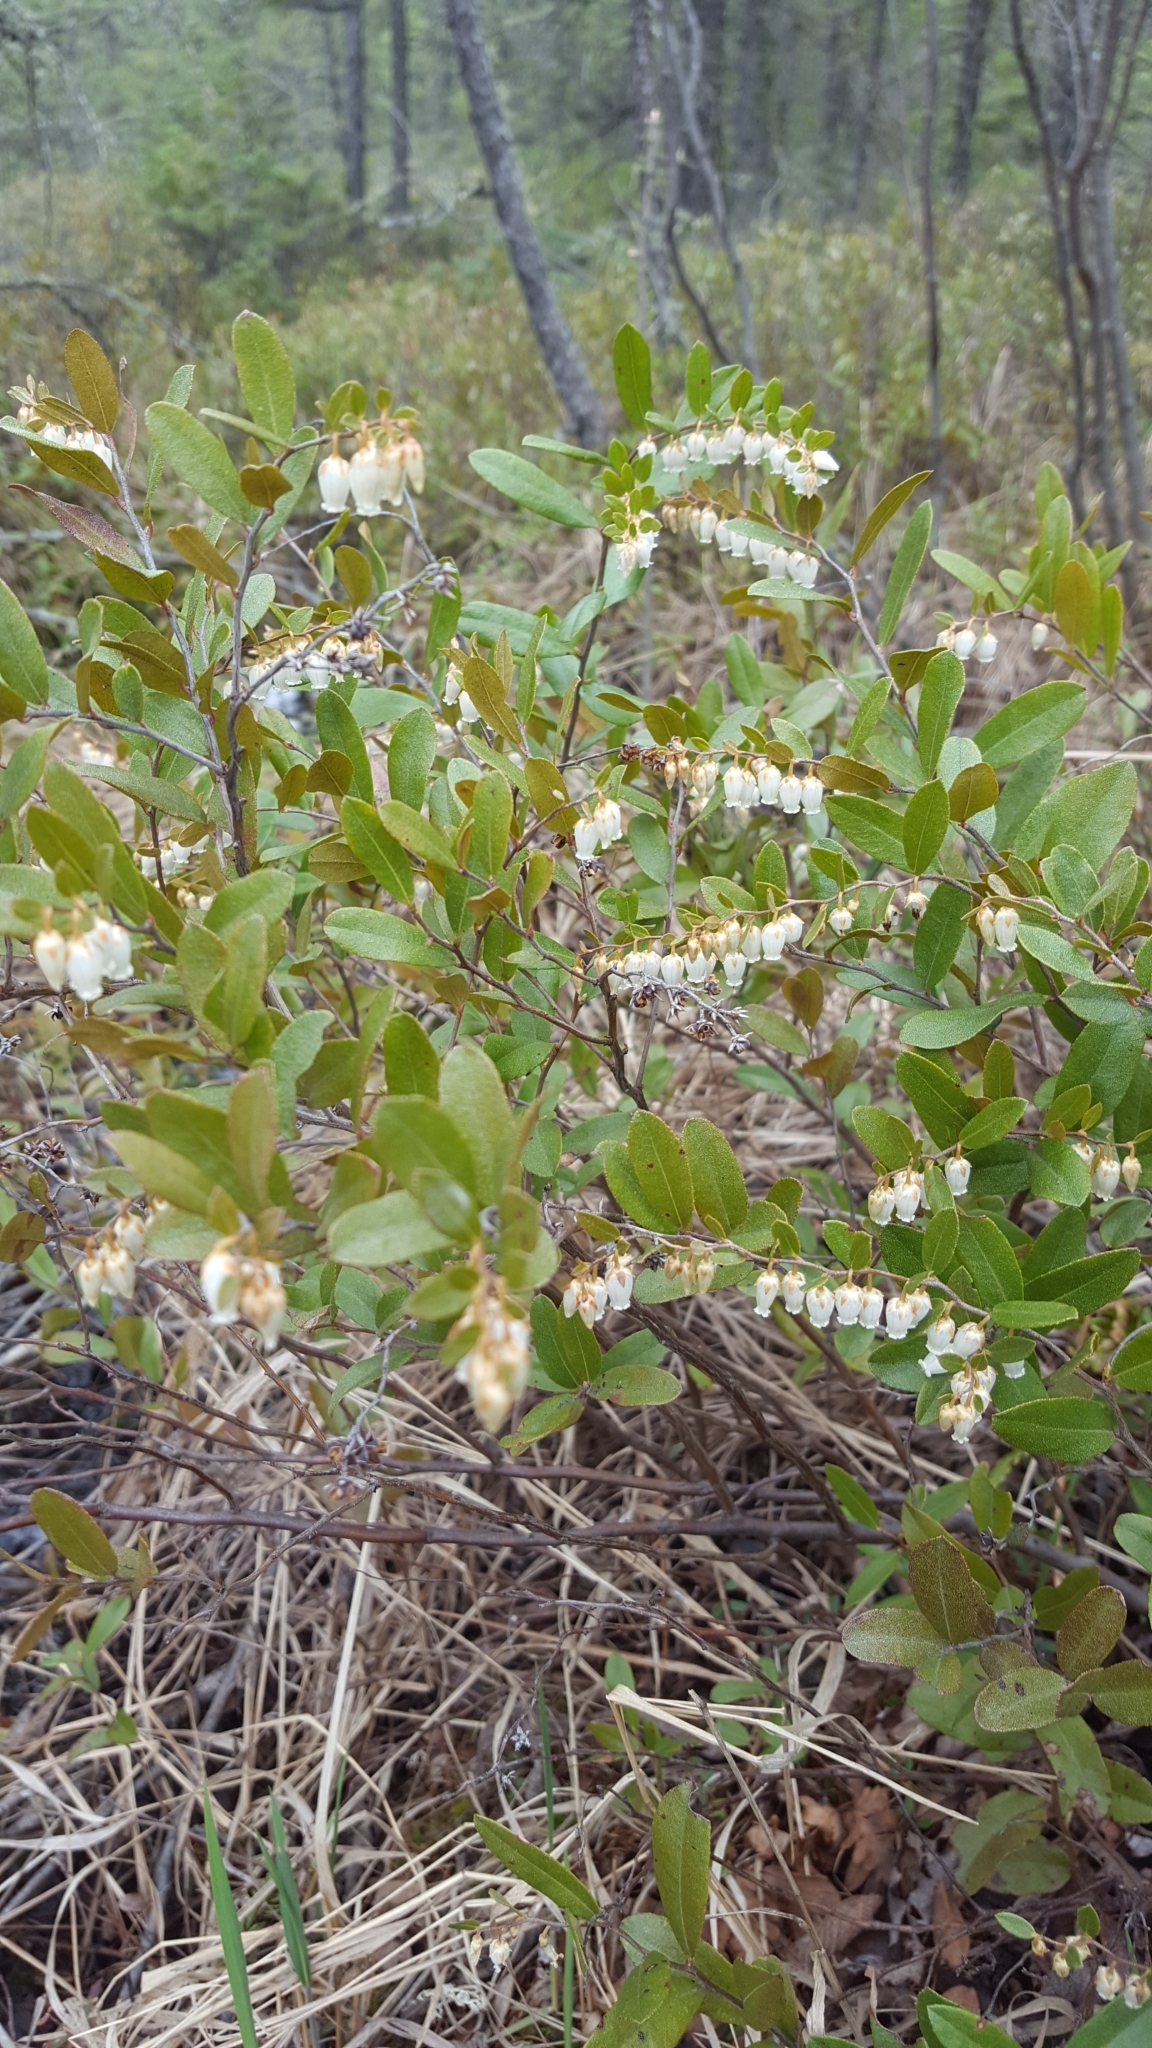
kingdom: Plantae
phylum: Tracheophyta
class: Magnoliopsida
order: Ericales
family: Ericaceae
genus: Chamaedaphne
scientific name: Chamaedaphne calyculata
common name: Leatherleaf
